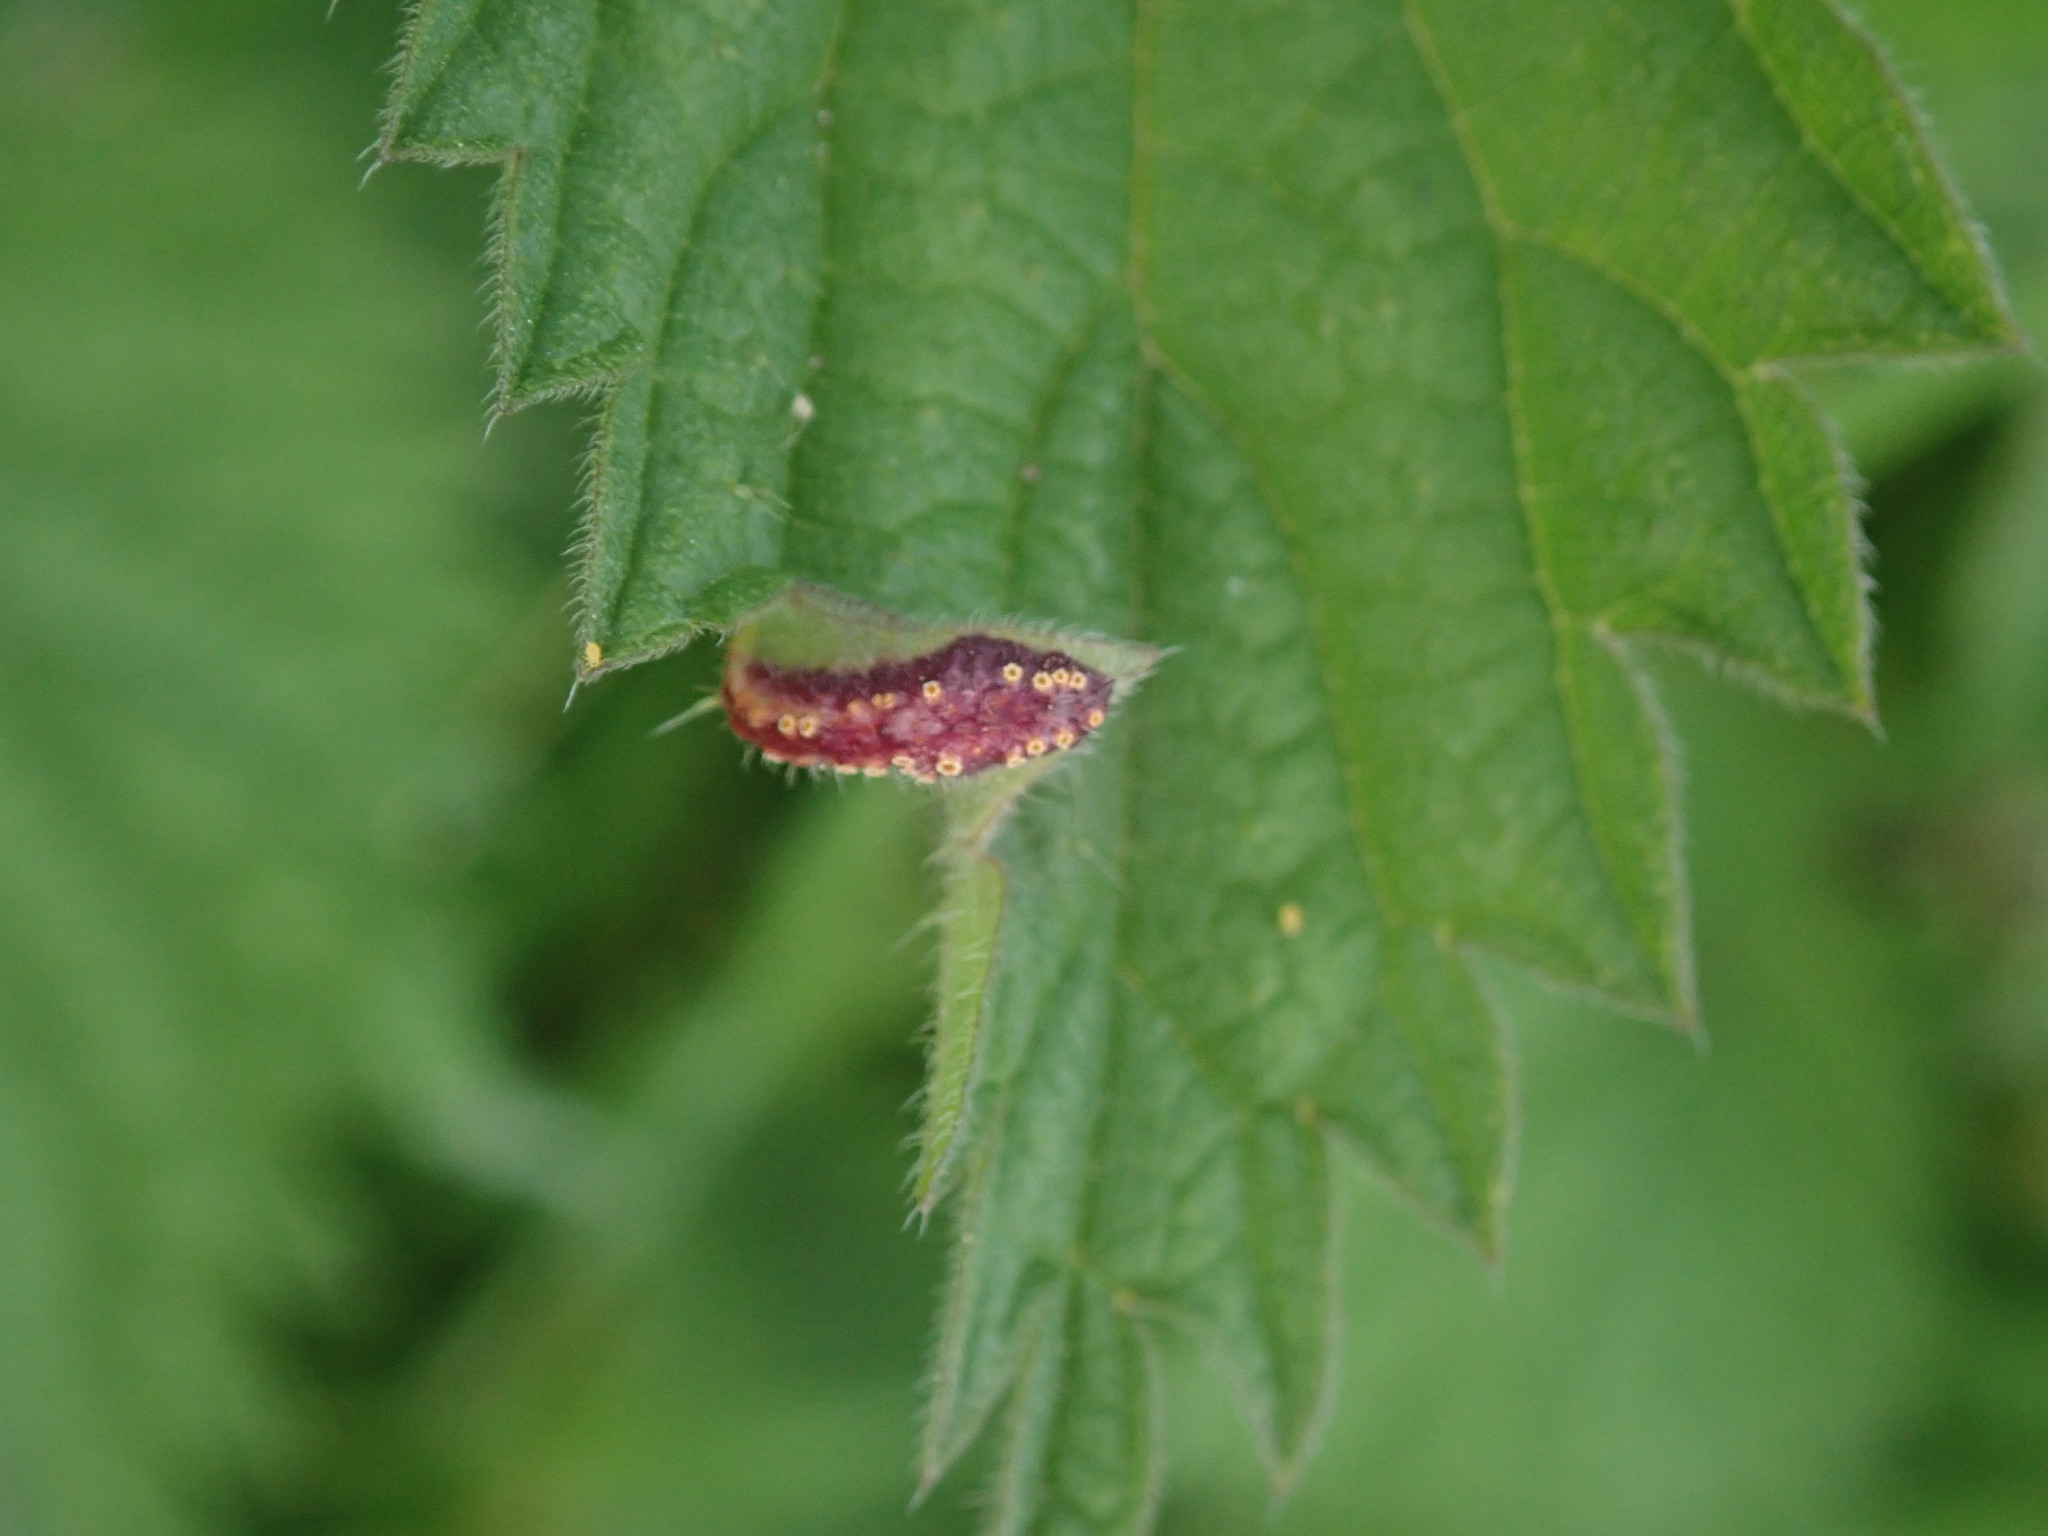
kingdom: Fungi
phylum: Basidiomycota
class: Pucciniomycetes
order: Pucciniales
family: Pucciniaceae
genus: Puccinia
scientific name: Puccinia urticata
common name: Nettle clustercup rust fungus
